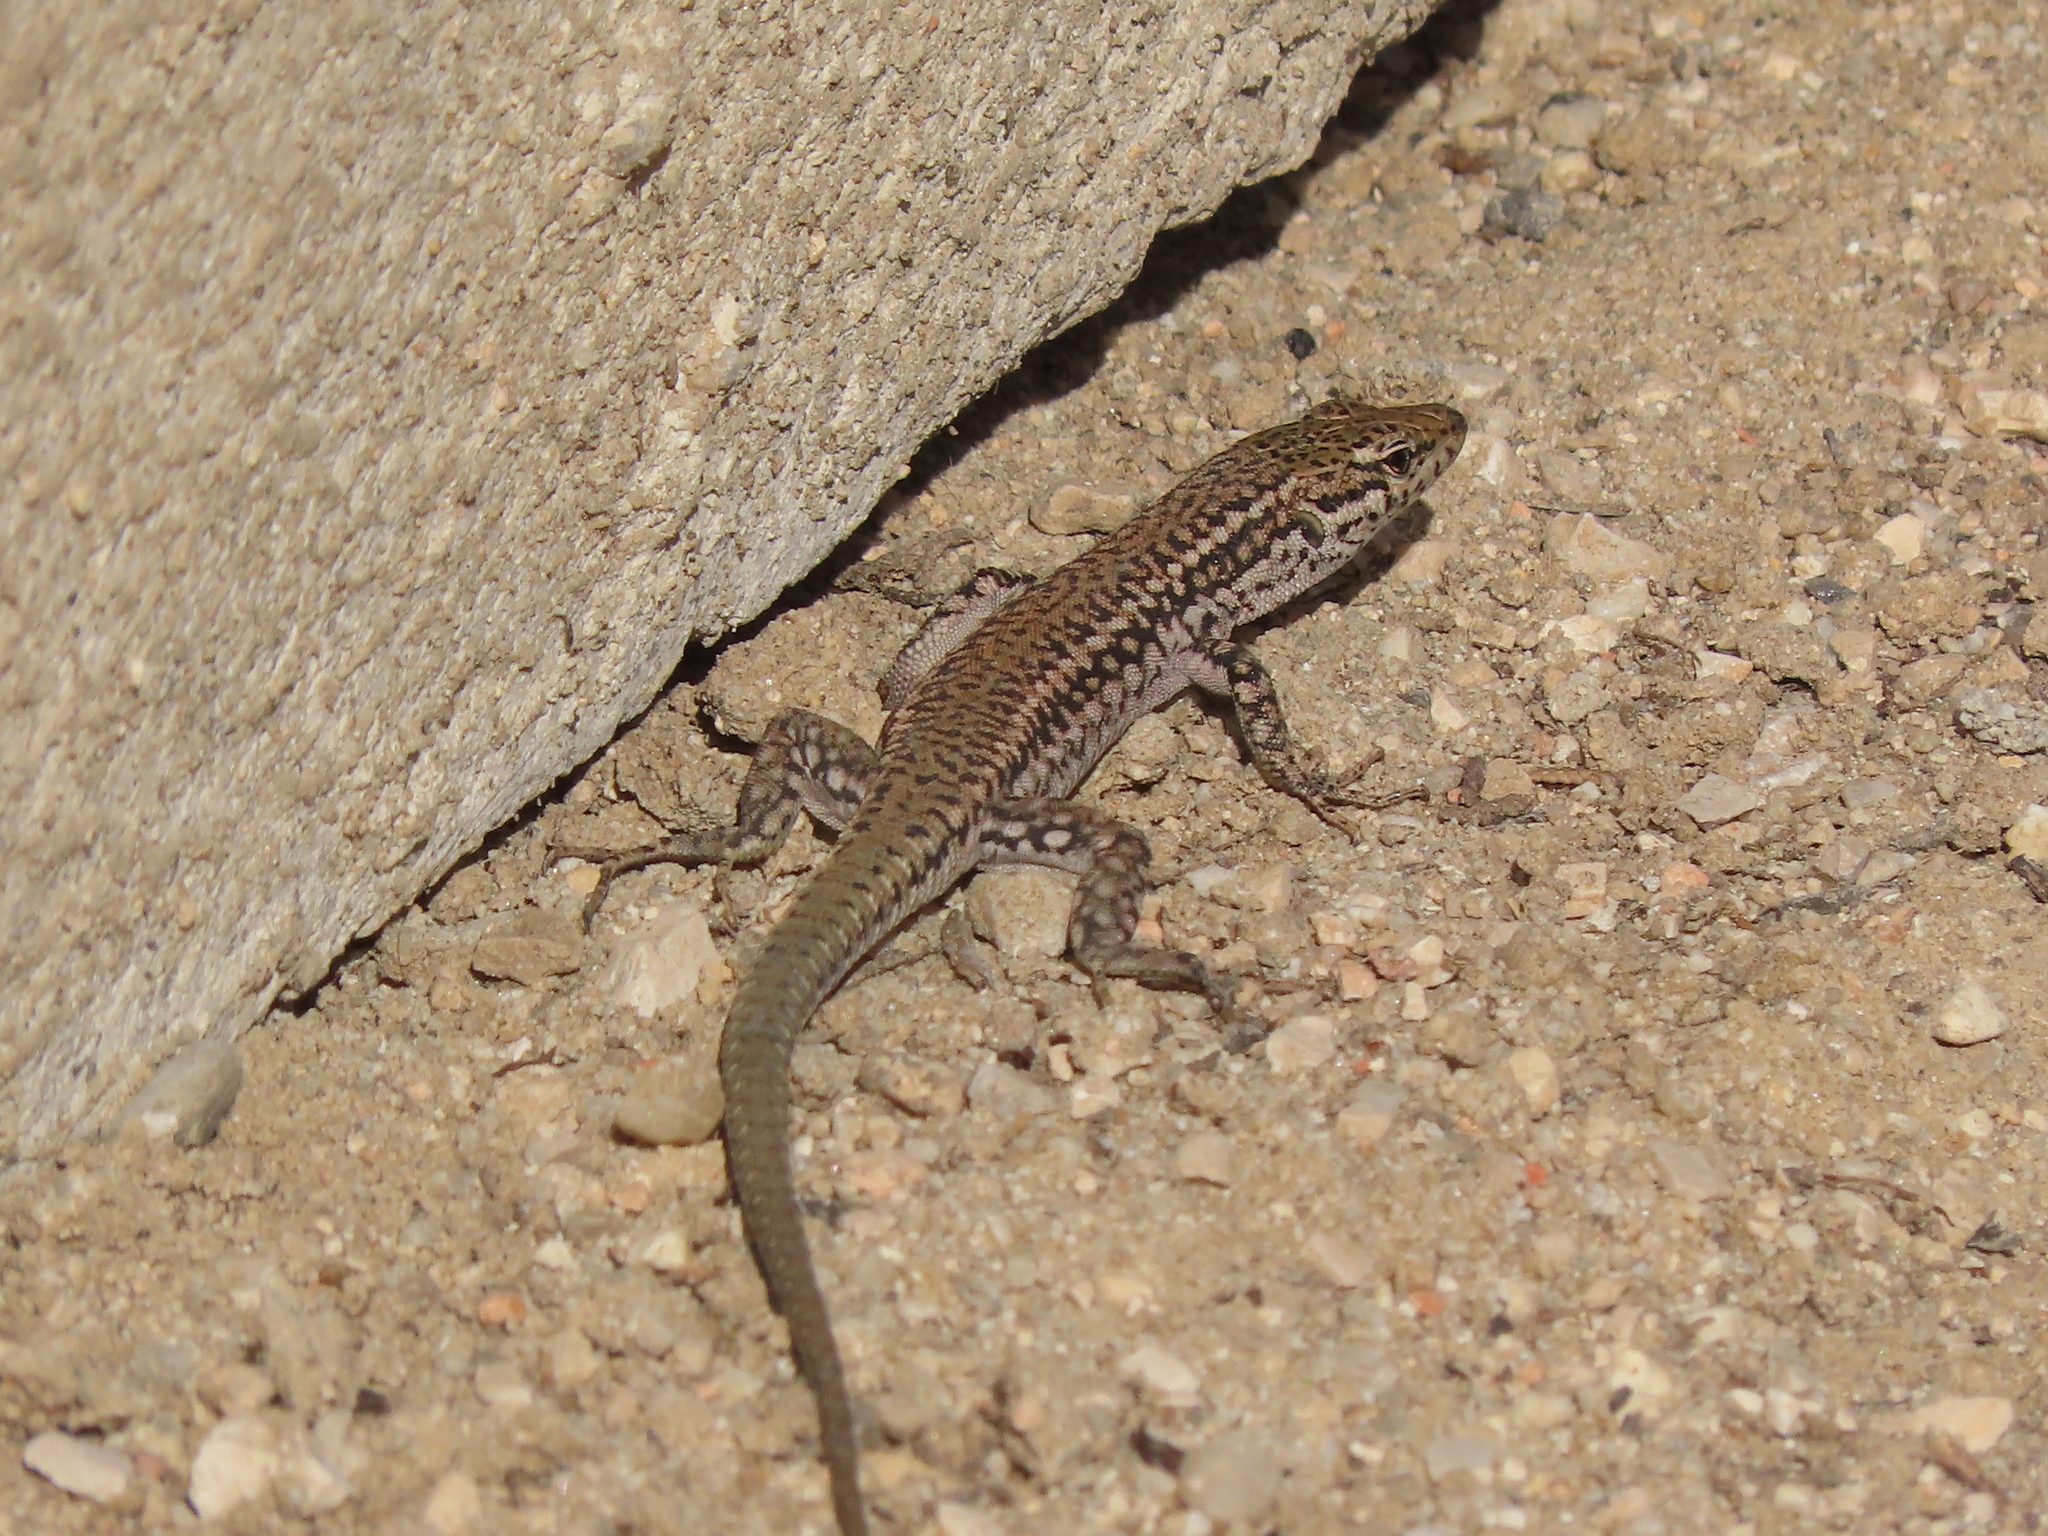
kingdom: Animalia
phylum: Chordata
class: Squamata
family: Lacertidae
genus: Podarcis
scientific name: Podarcis virescens
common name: Geniez’s wall lizard
